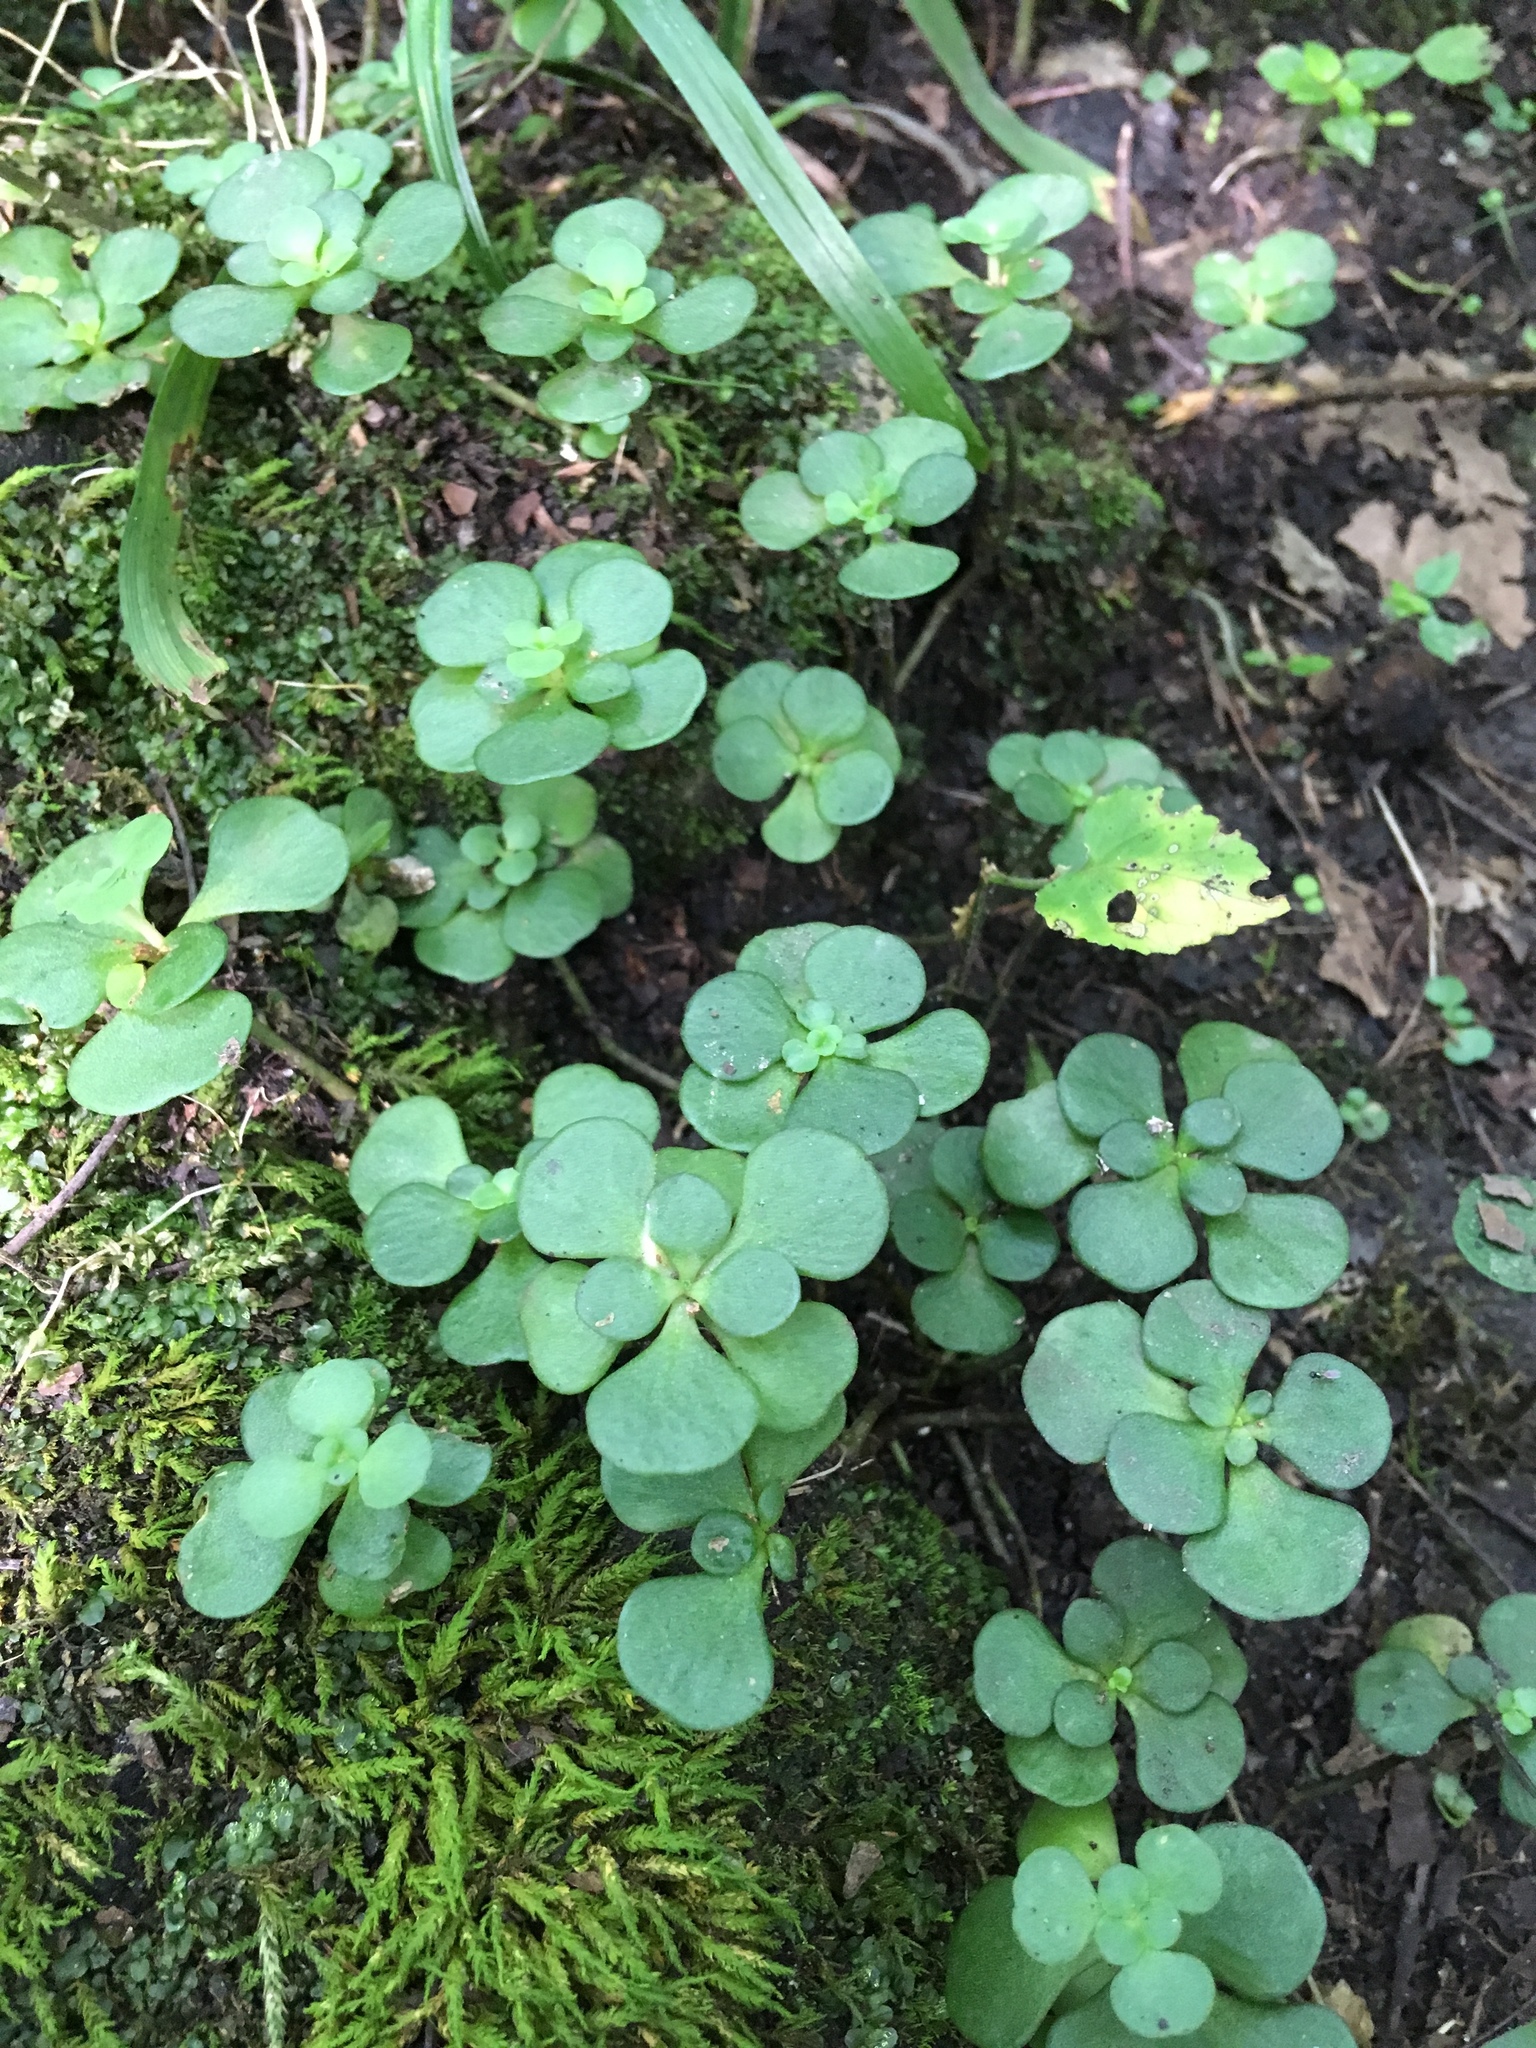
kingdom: Plantae
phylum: Tracheophyta
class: Magnoliopsida
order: Saxifragales
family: Crassulaceae
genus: Sedum
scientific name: Sedum ternatum
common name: Wild stonecrop
